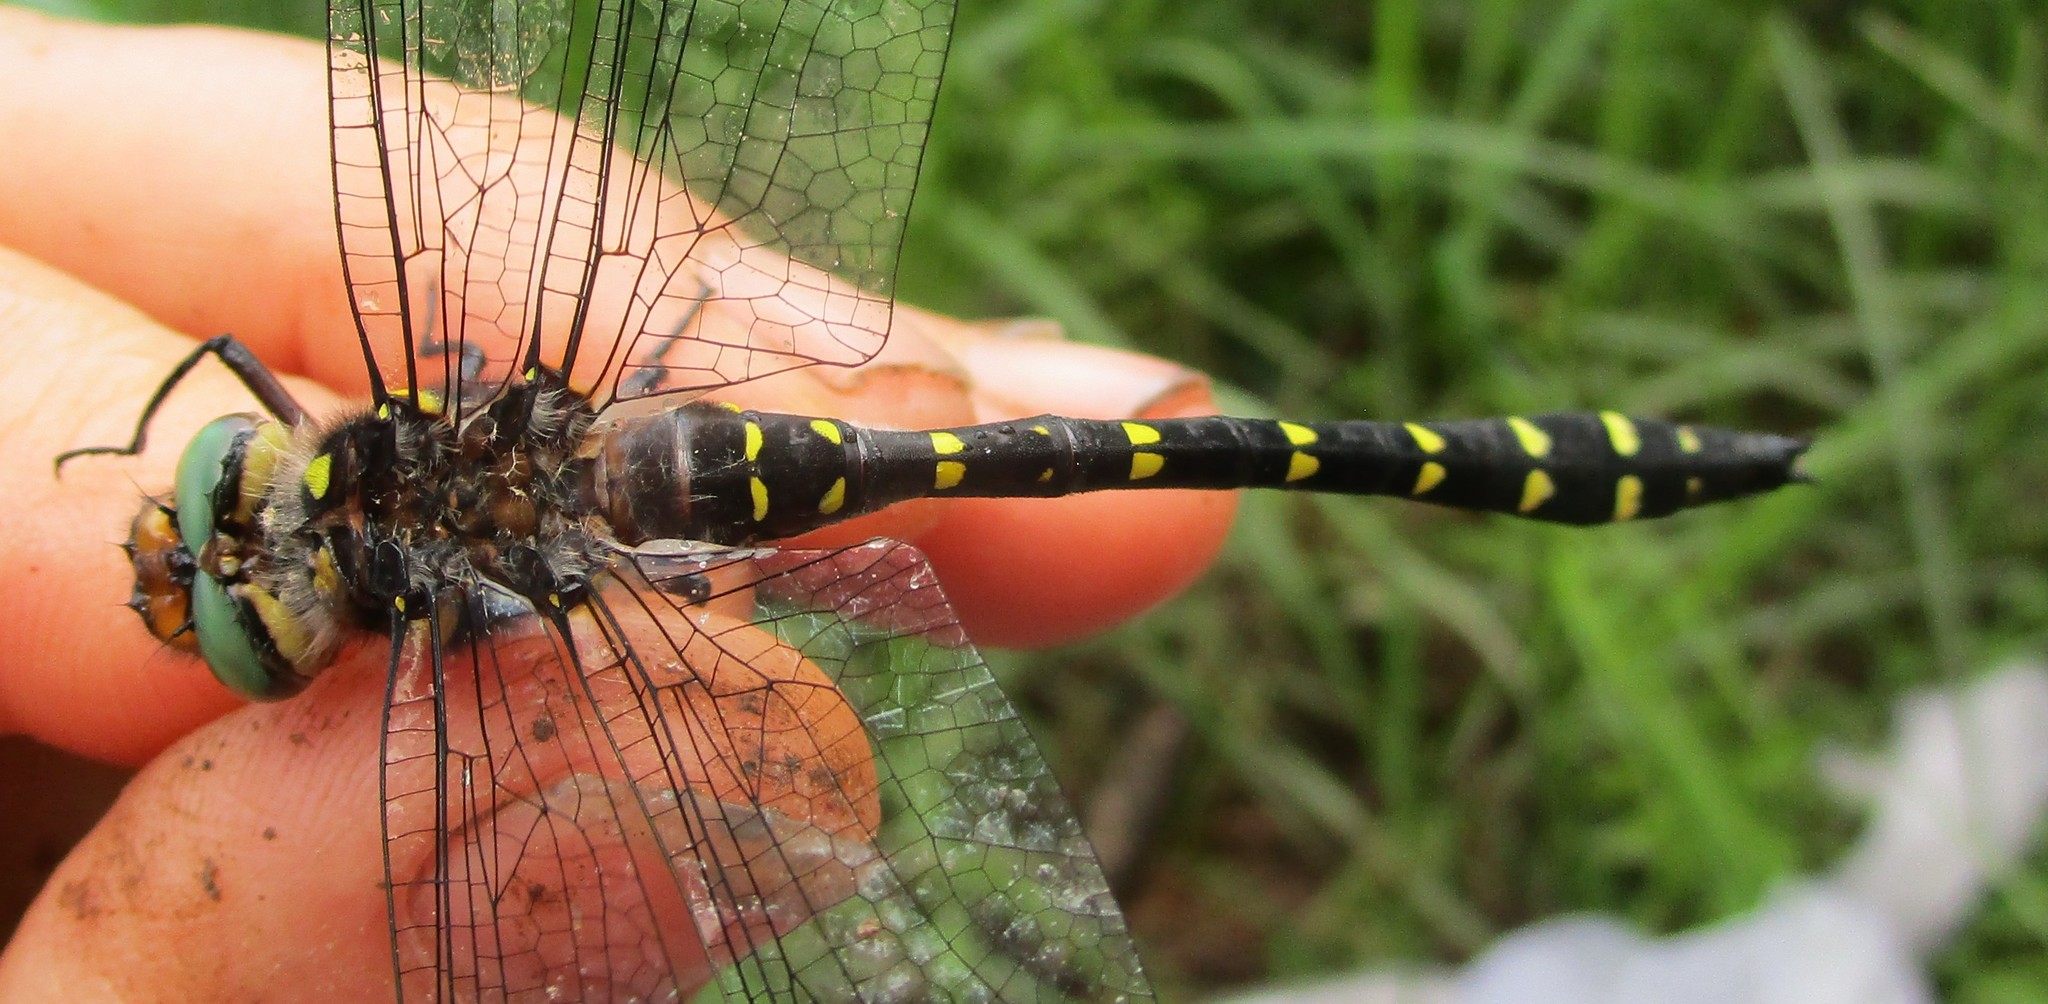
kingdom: Animalia
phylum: Arthropoda
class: Insecta
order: Odonata
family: Cordulegastridae
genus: Cordulegaster
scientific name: Cordulegaster maculata
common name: Twin-spotted spiketail
